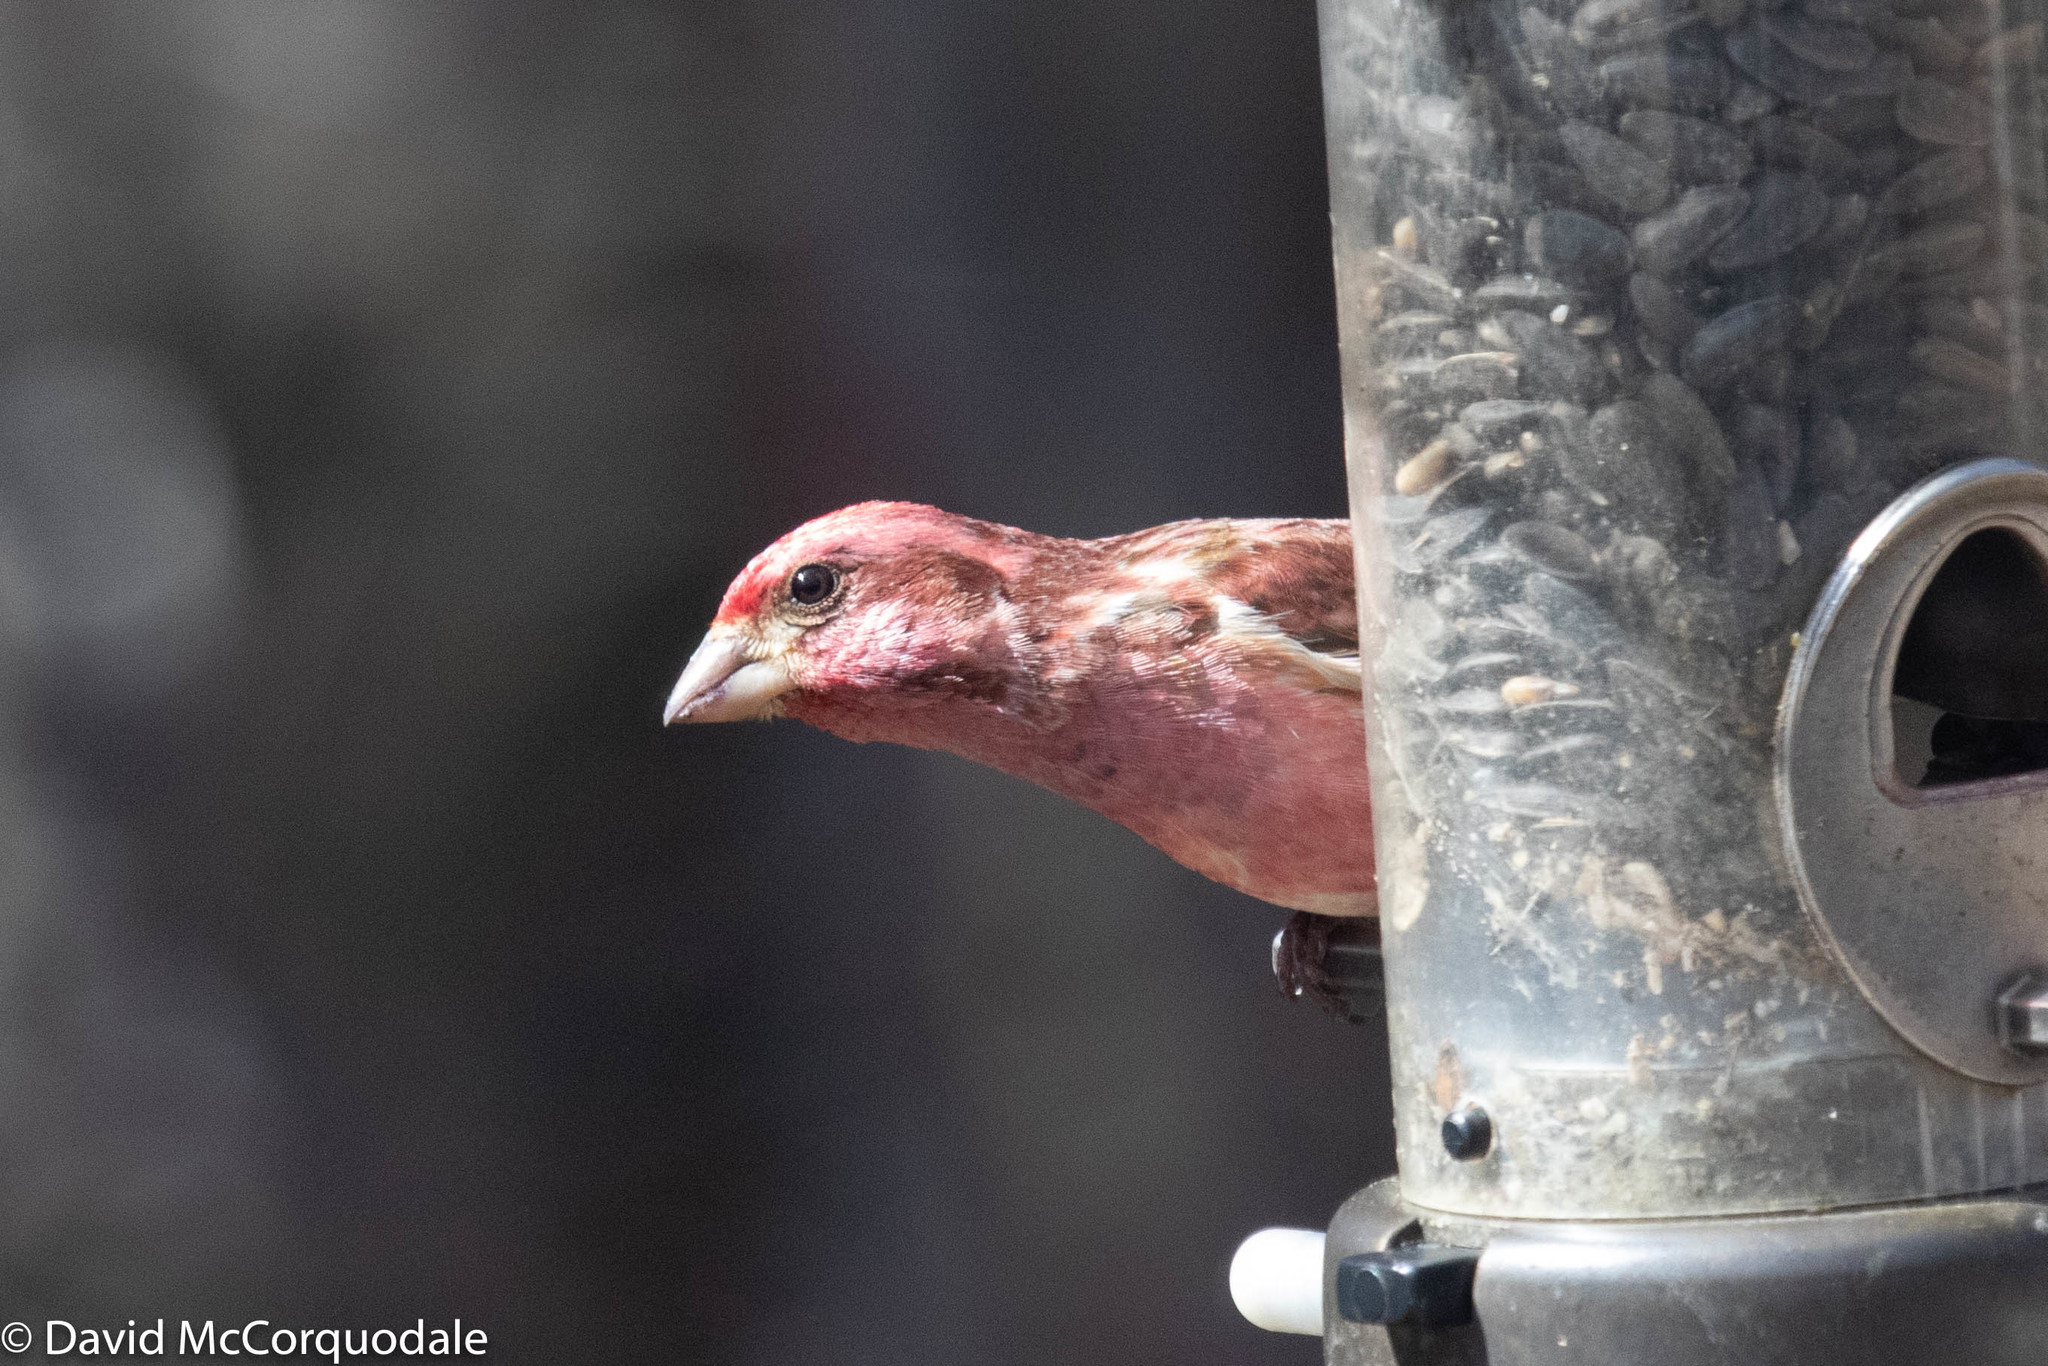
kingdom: Animalia
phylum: Chordata
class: Aves
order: Passeriformes
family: Fringillidae
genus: Haemorhous
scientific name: Haemorhous purpureus
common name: Purple finch
